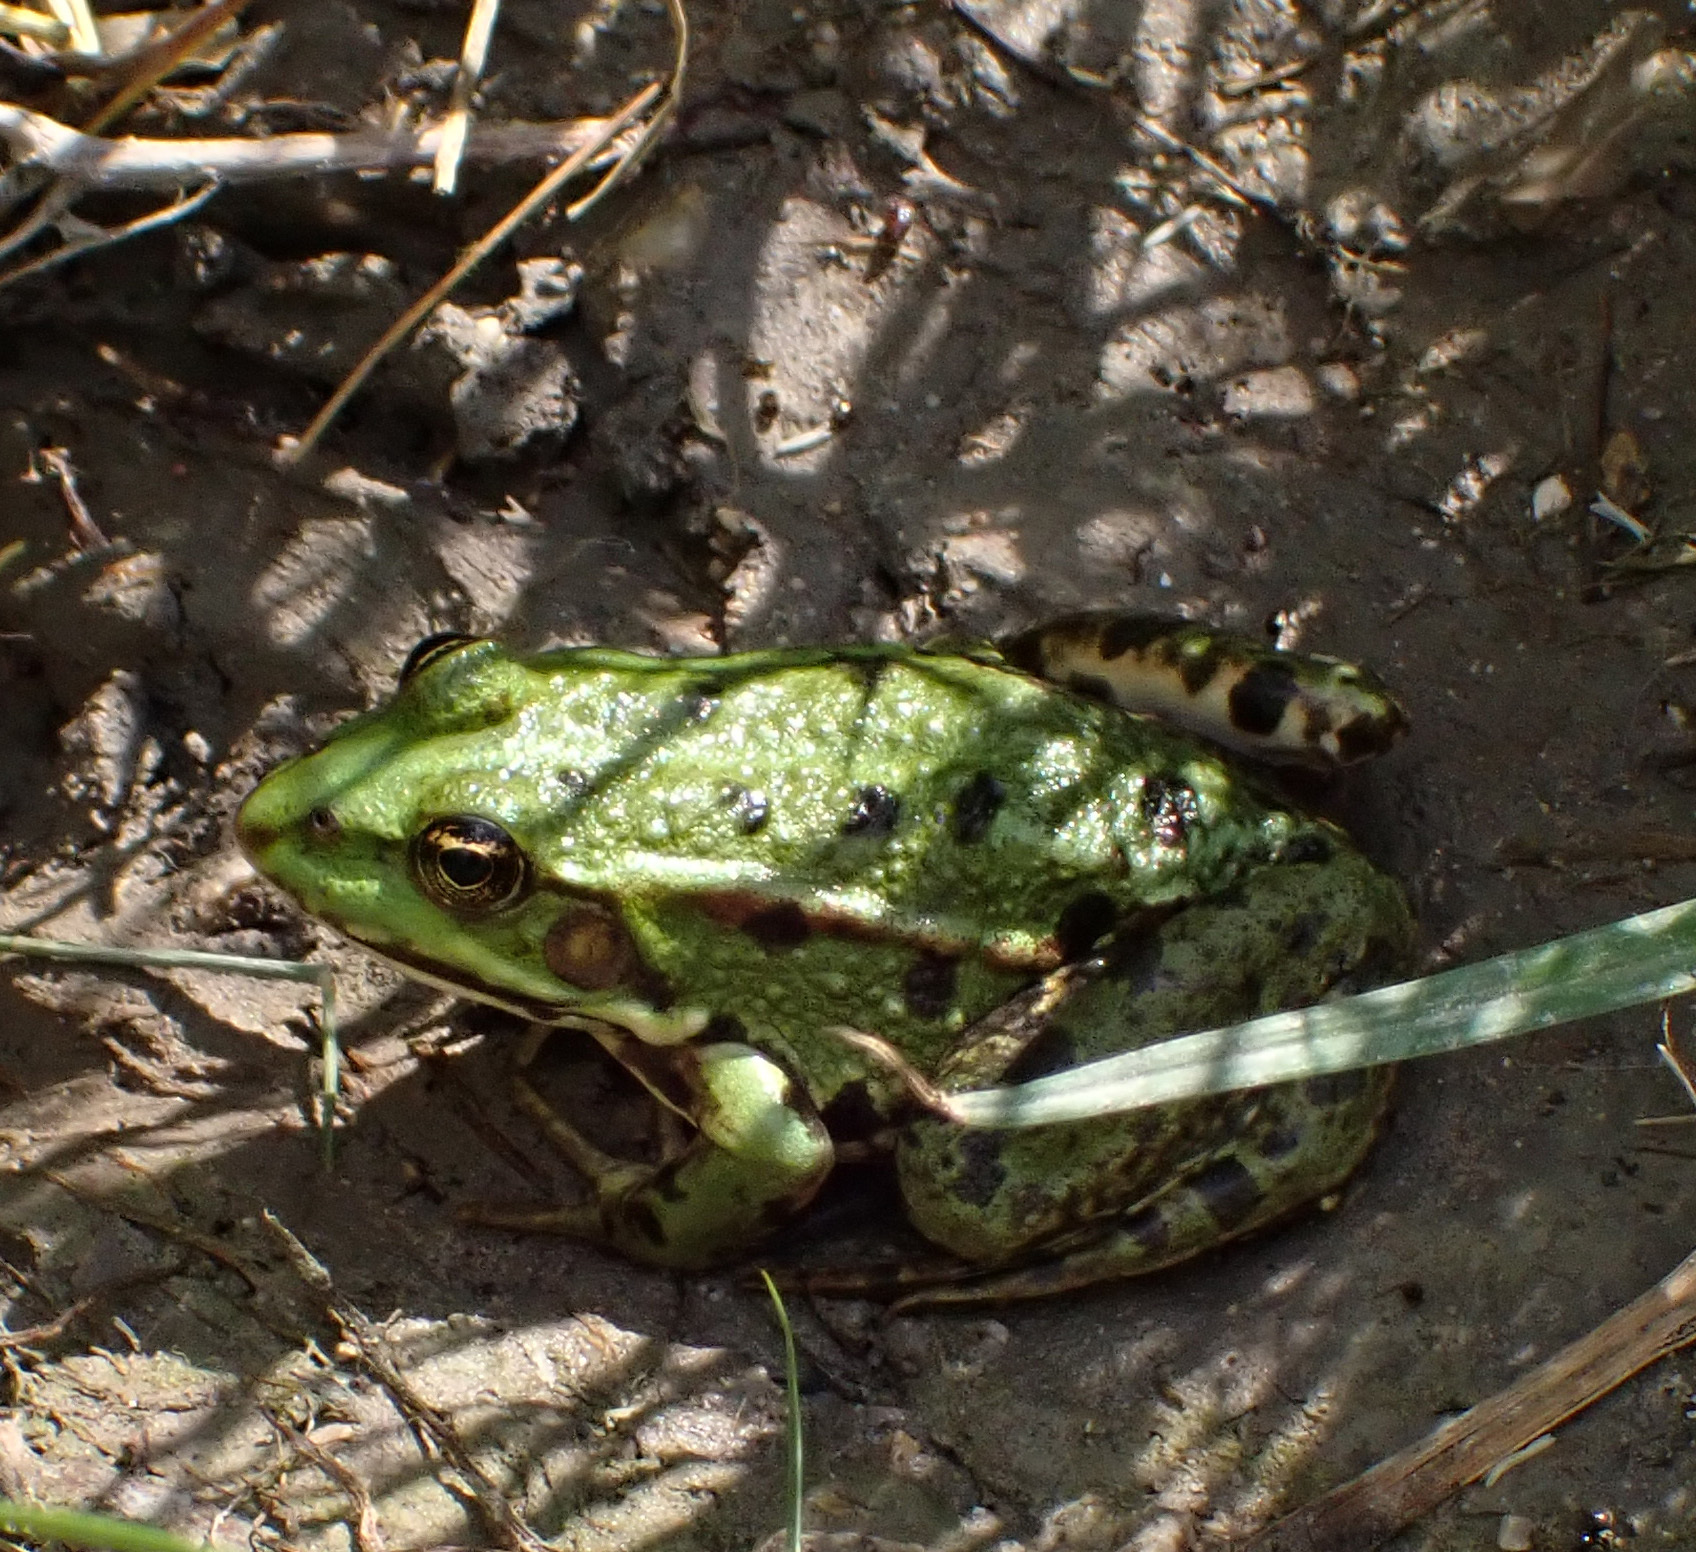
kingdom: Animalia
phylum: Chordata
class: Amphibia
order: Anura
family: Ranidae
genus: Pelophylax
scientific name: Pelophylax
